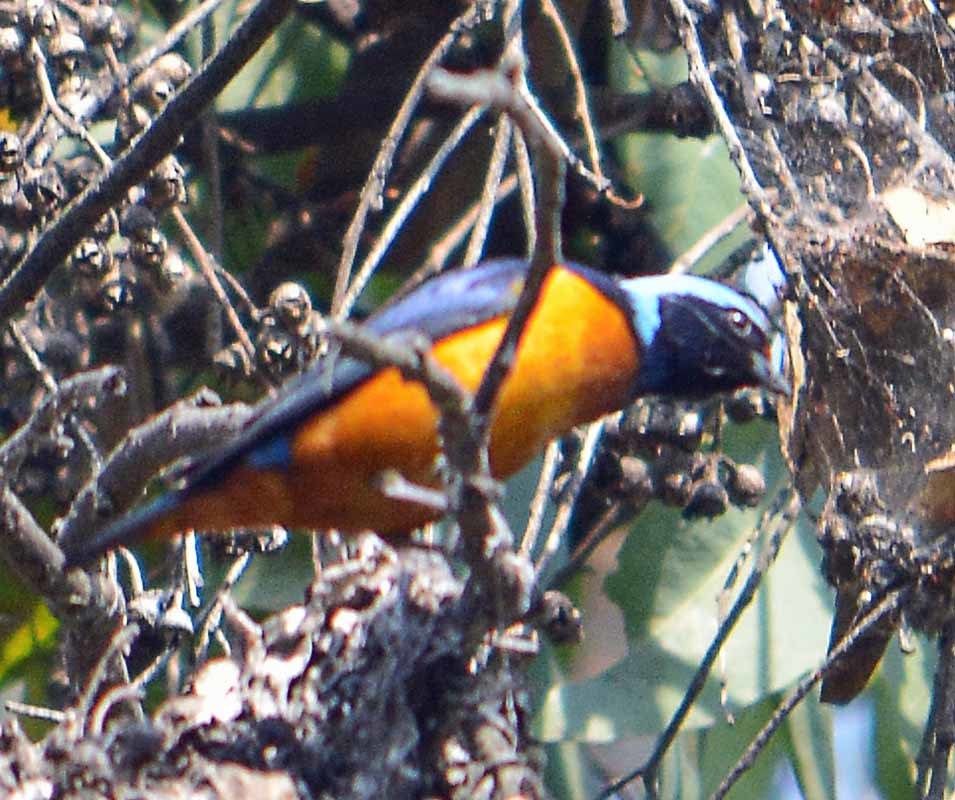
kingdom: Animalia
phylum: Chordata
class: Aves
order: Passeriformes
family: Fringillidae
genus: Euphonia
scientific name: Euphonia elegantissima
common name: Elegant euphonia
